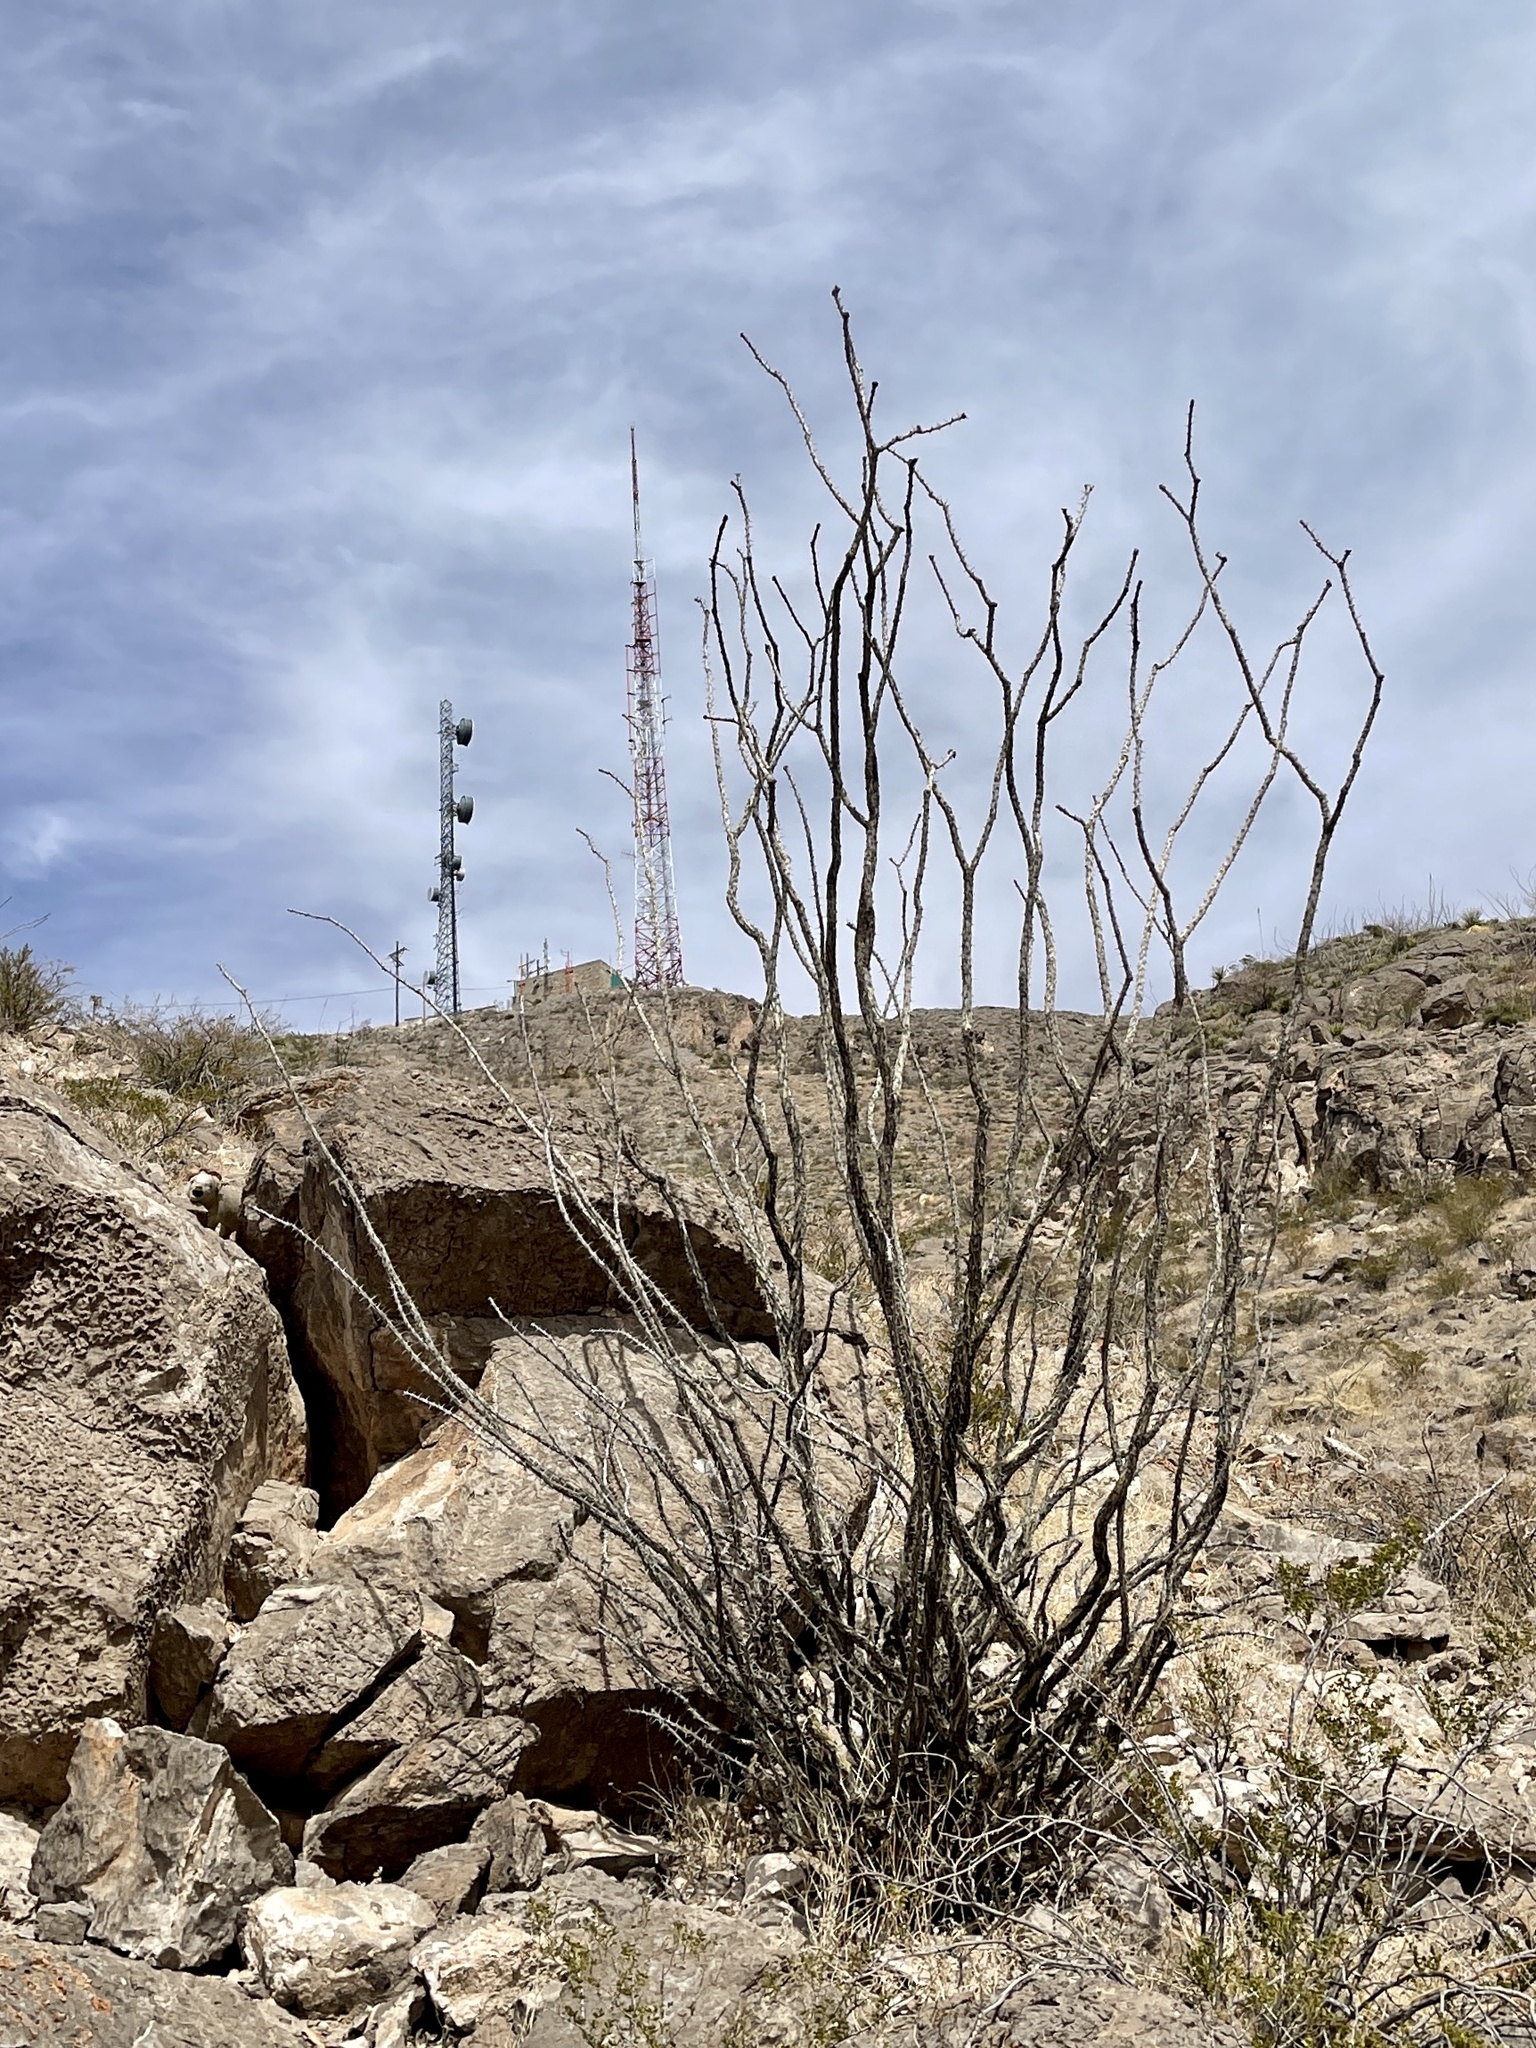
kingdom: Plantae
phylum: Tracheophyta
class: Magnoliopsida
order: Ericales
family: Fouquieriaceae
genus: Fouquieria
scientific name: Fouquieria splendens
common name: Vine-cactus
